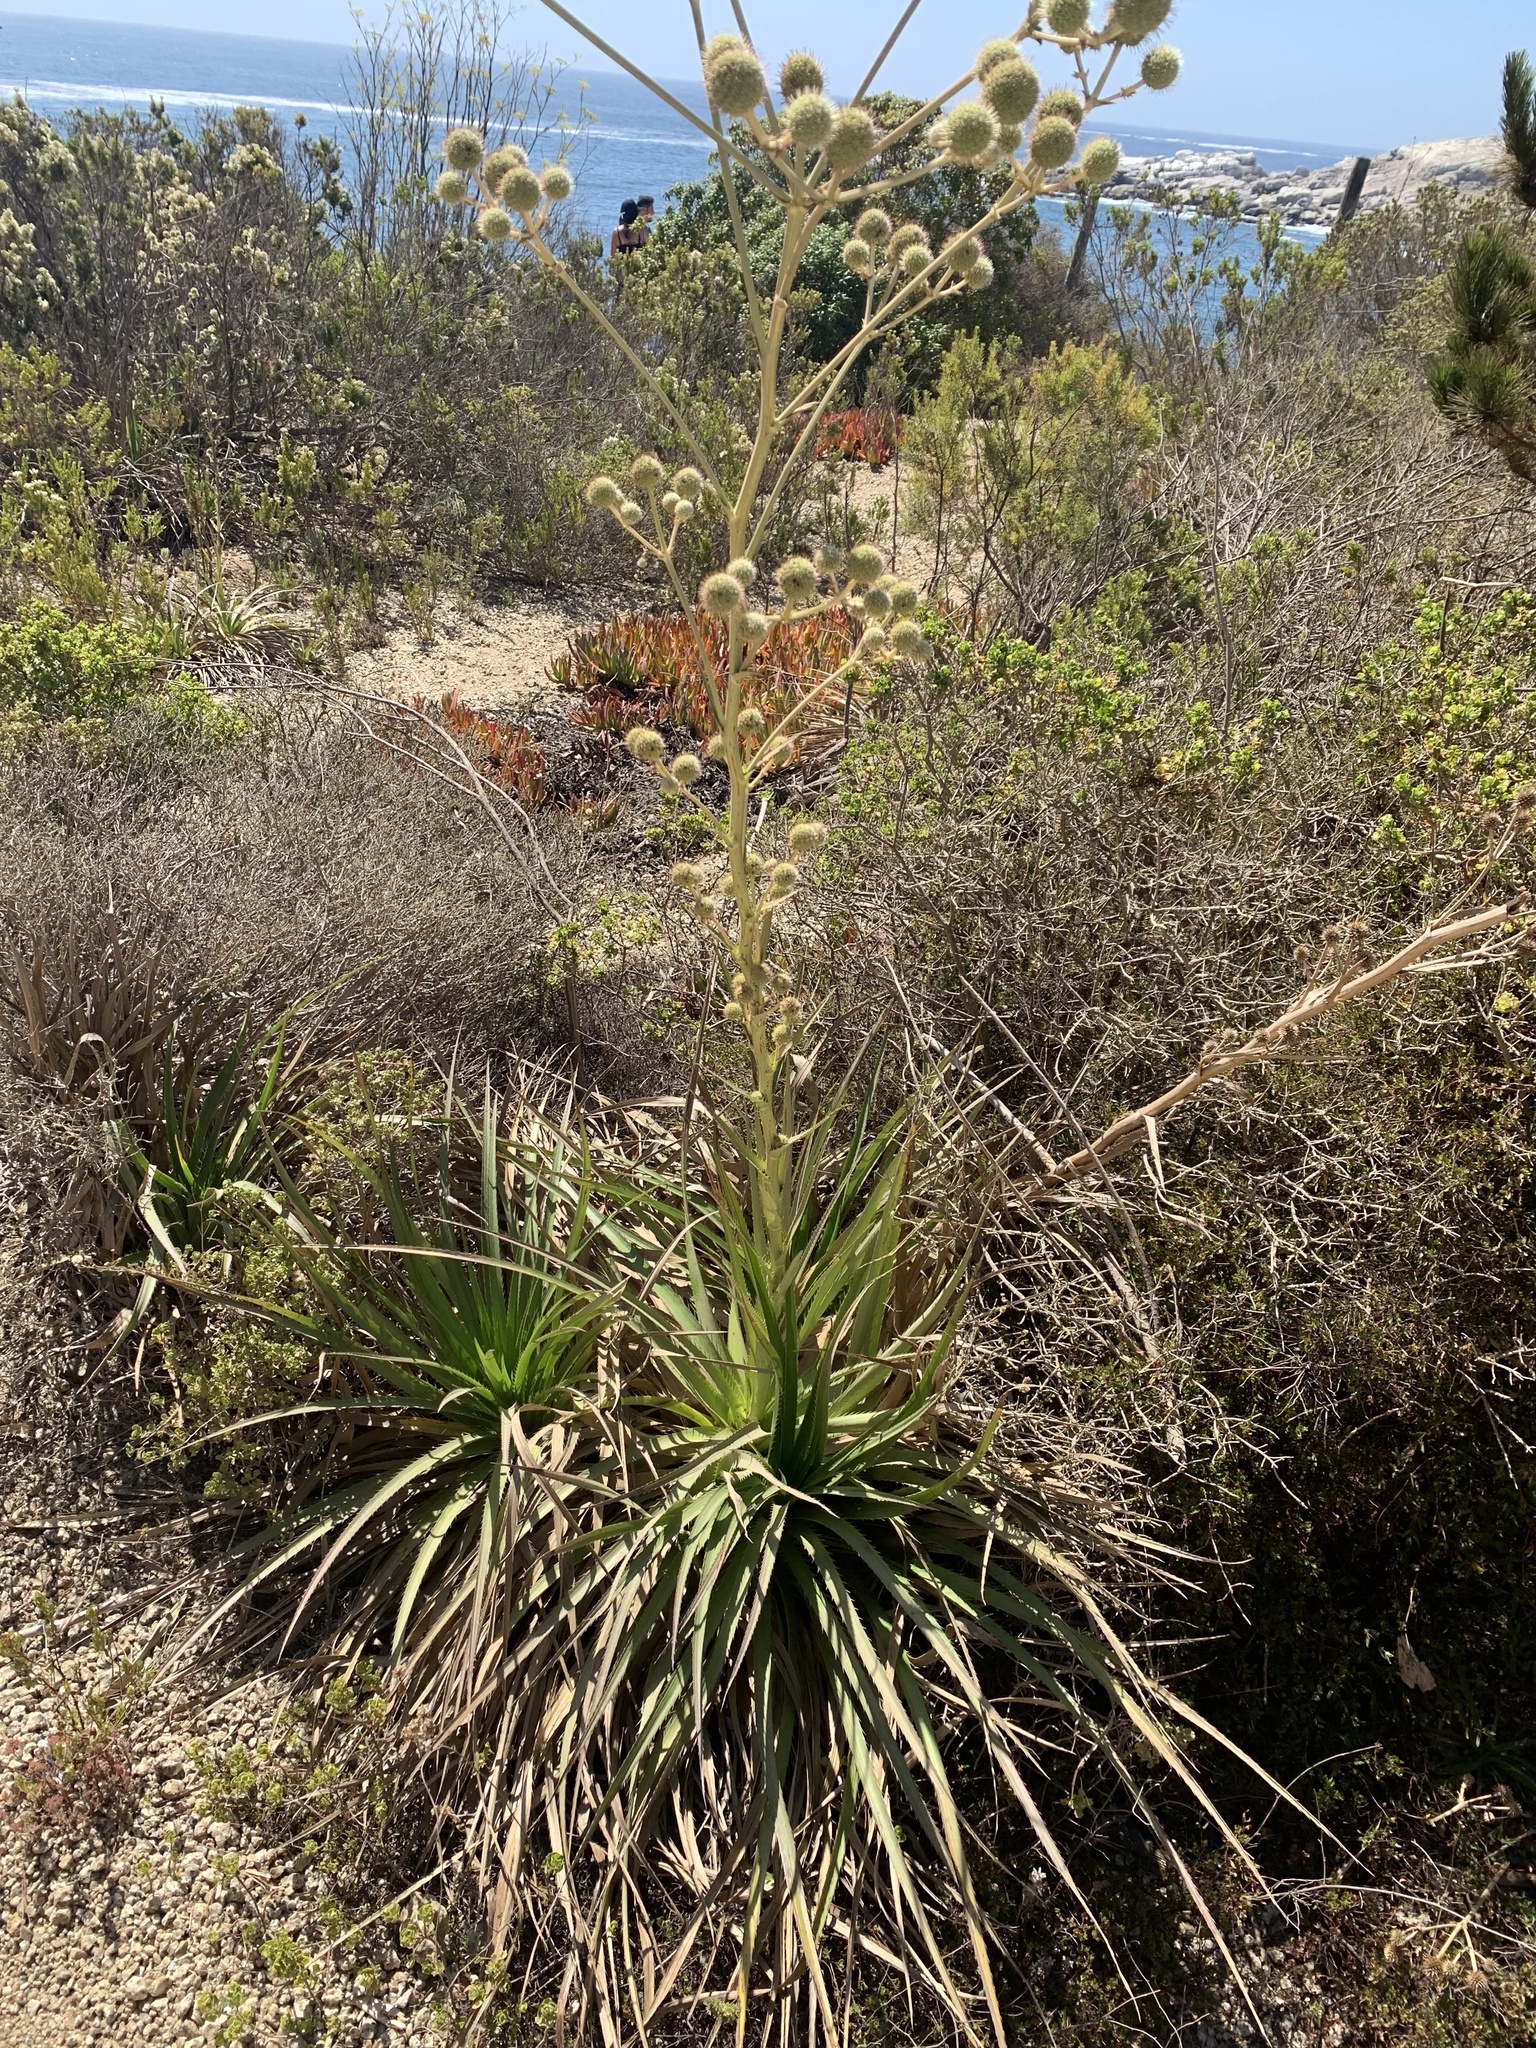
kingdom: Plantae
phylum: Tracheophyta
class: Magnoliopsida
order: Apiales
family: Apiaceae
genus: Eryngium
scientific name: Eryngium humboldtii
